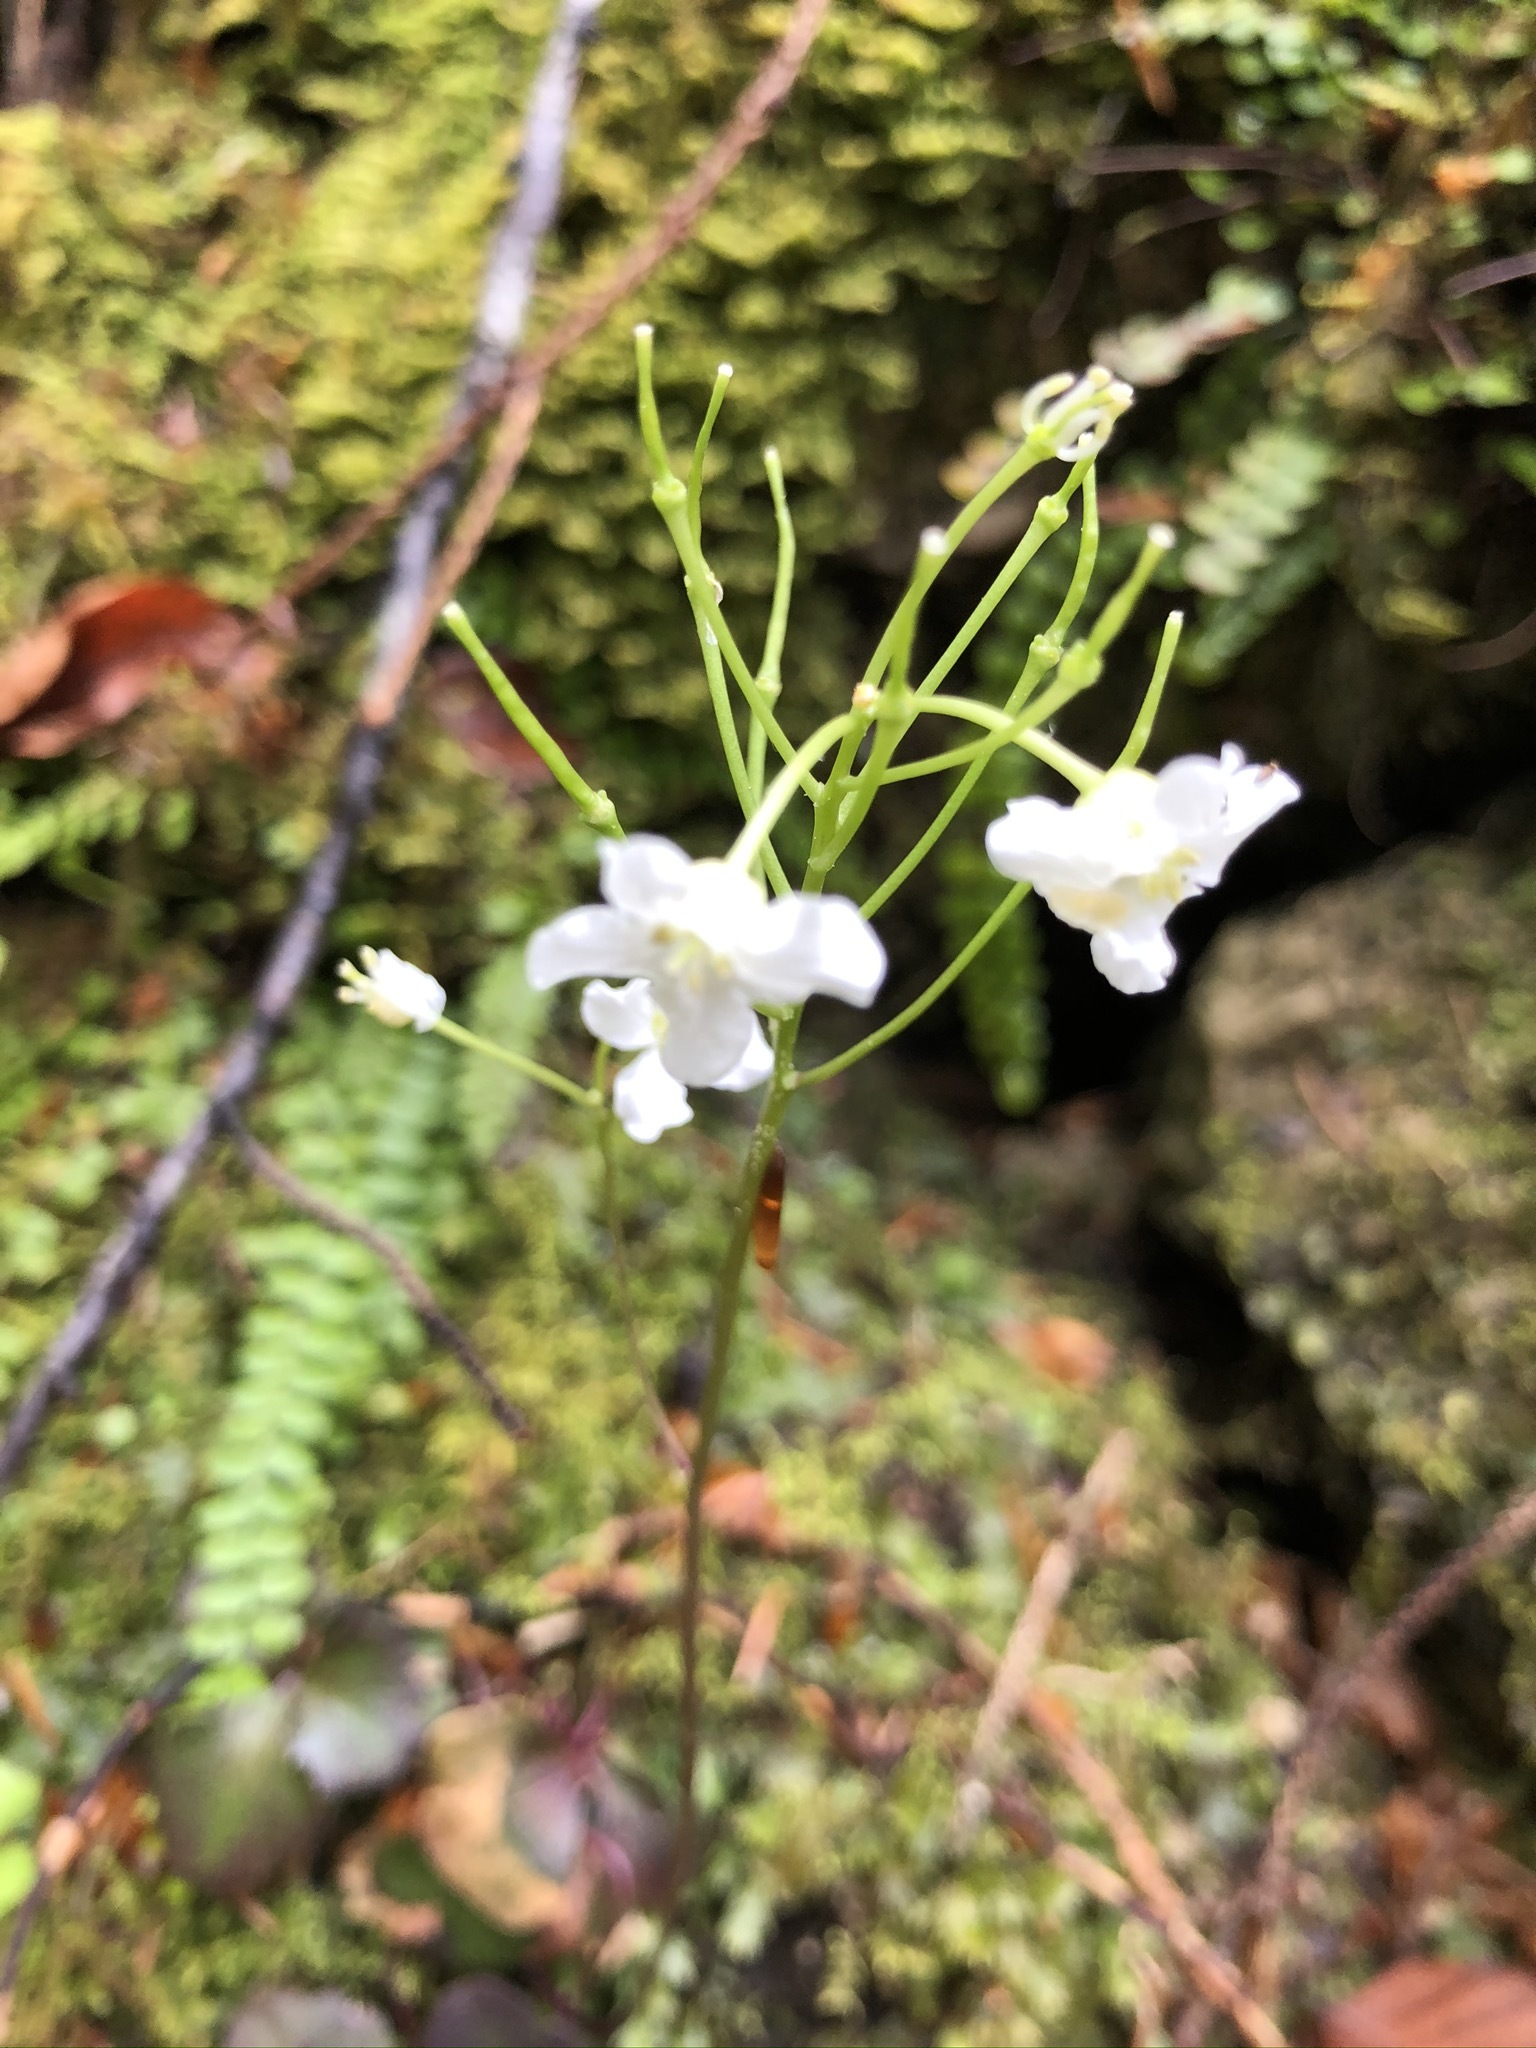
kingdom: Plantae
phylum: Tracheophyta
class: Magnoliopsida
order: Brassicales
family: Brassicaceae
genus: Cardamine
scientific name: Cardamine trifolia
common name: Trefoil cress
